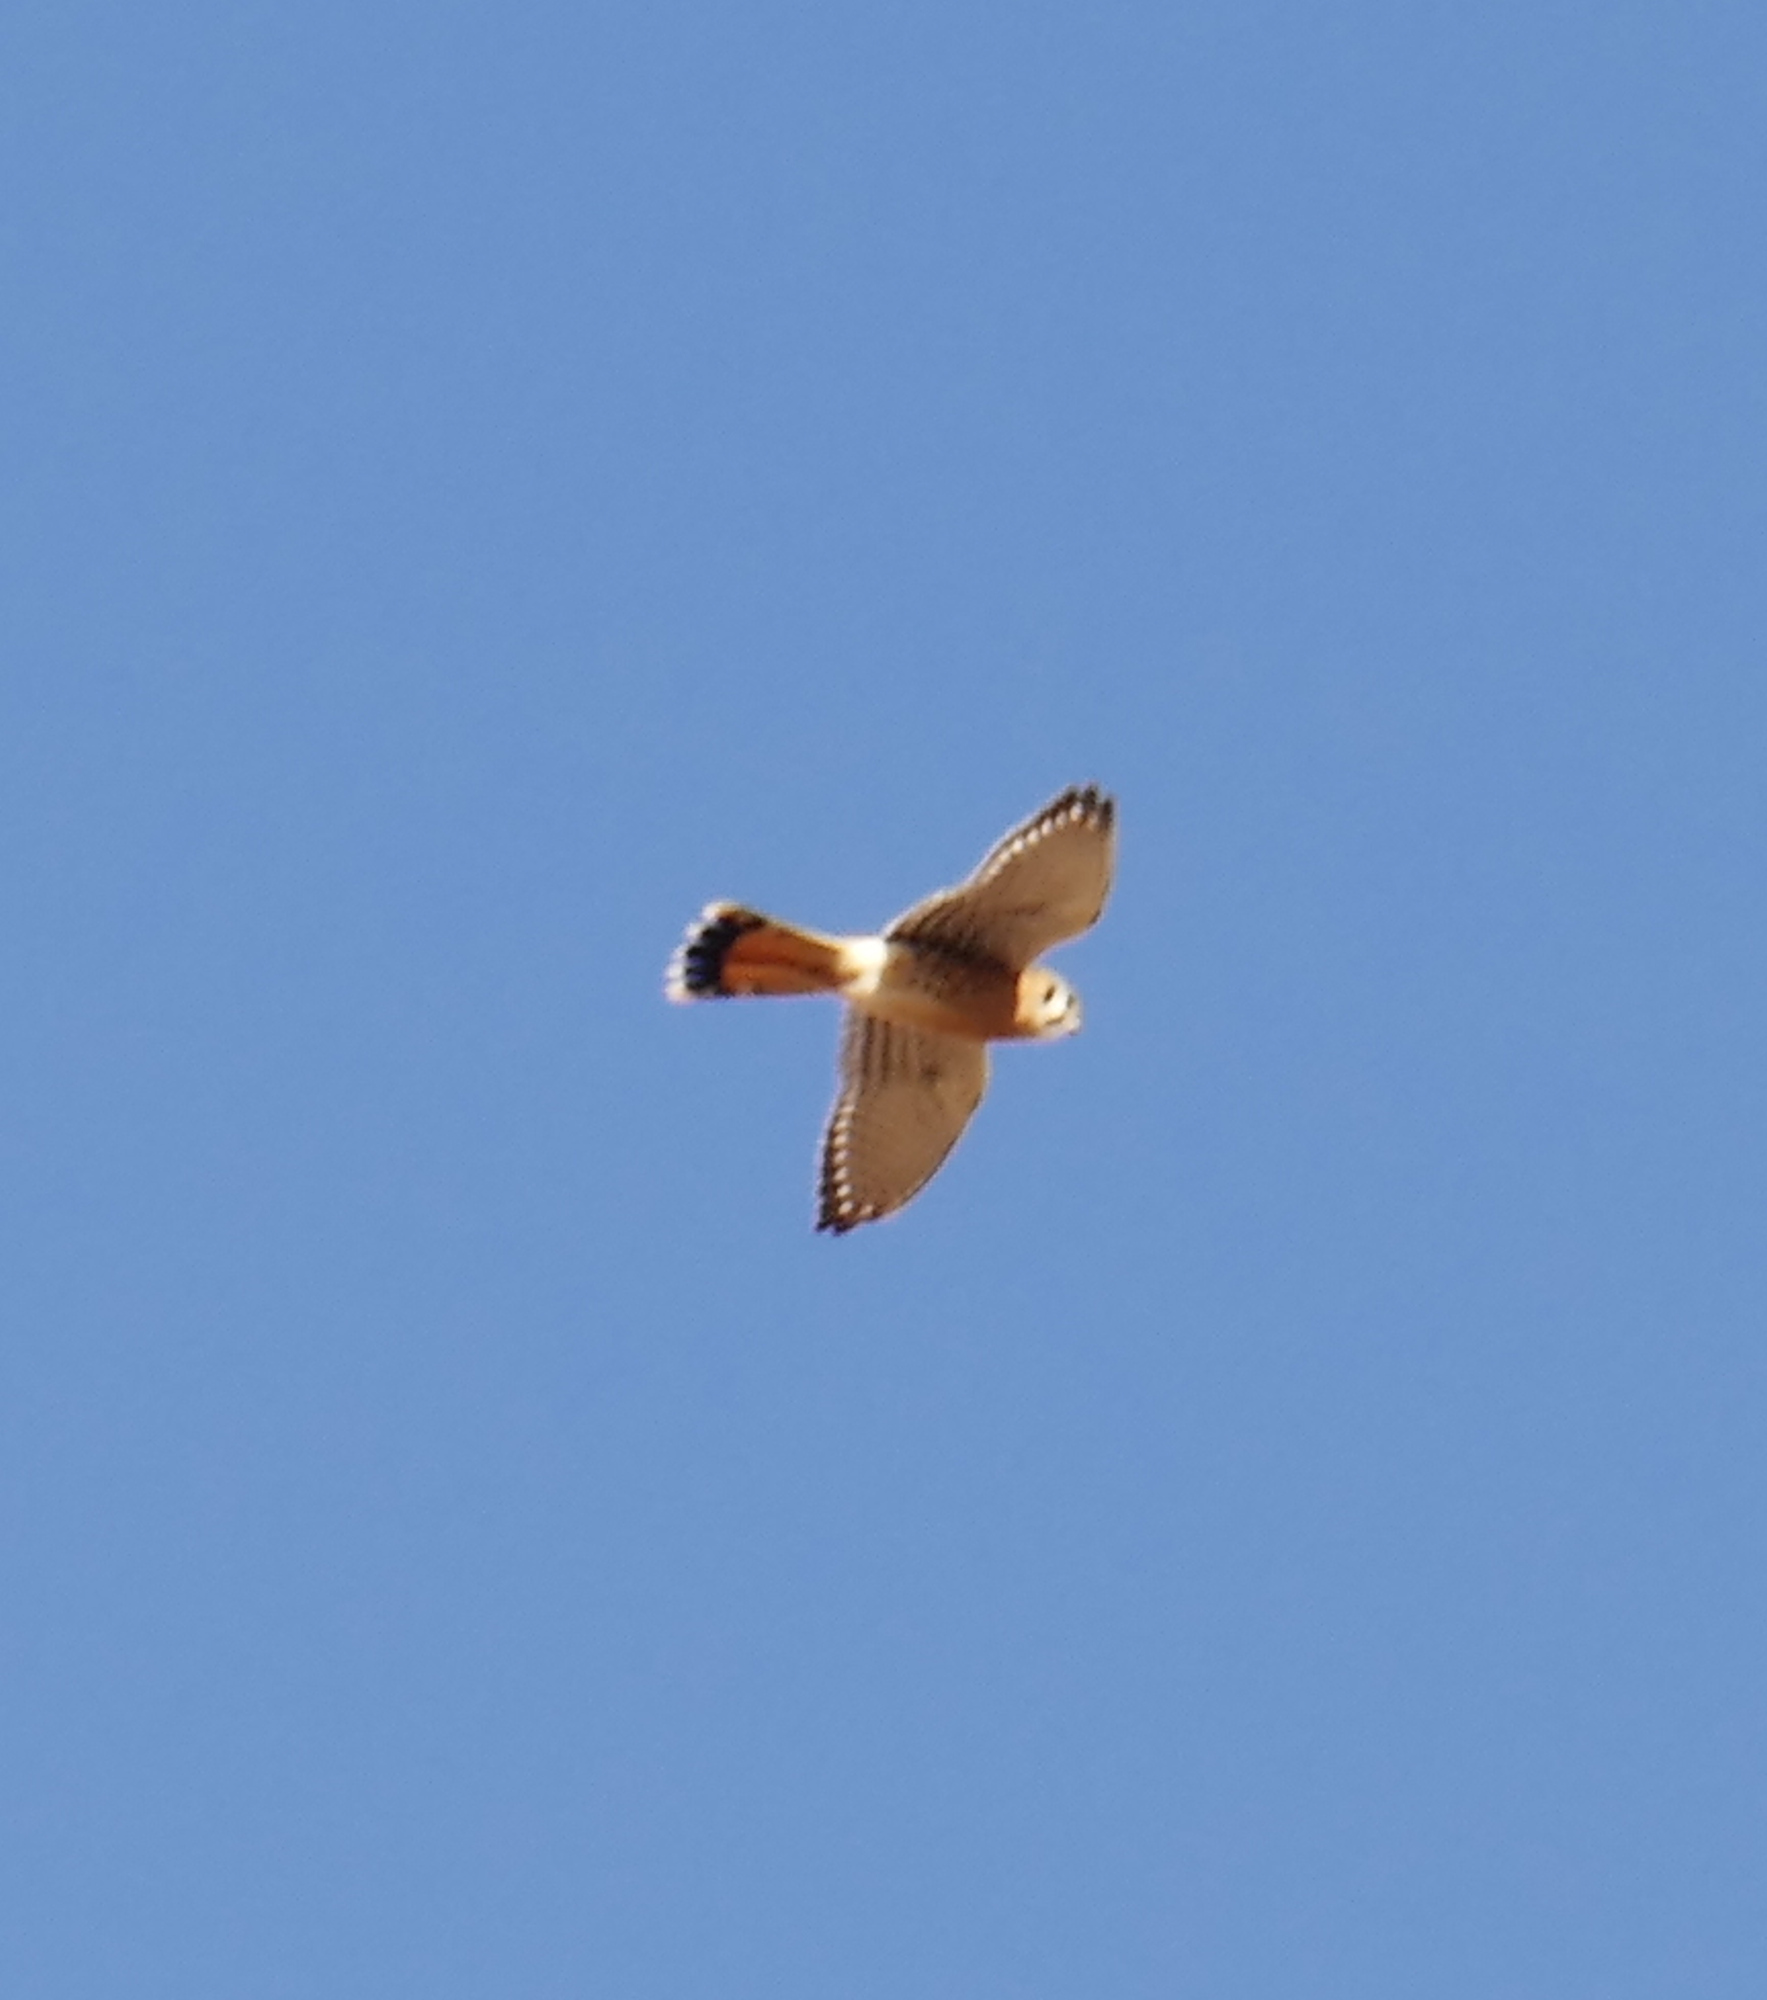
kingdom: Animalia
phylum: Chordata
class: Aves
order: Falconiformes
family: Falconidae
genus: Falco
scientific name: Falco sparverius
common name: American kestrel
